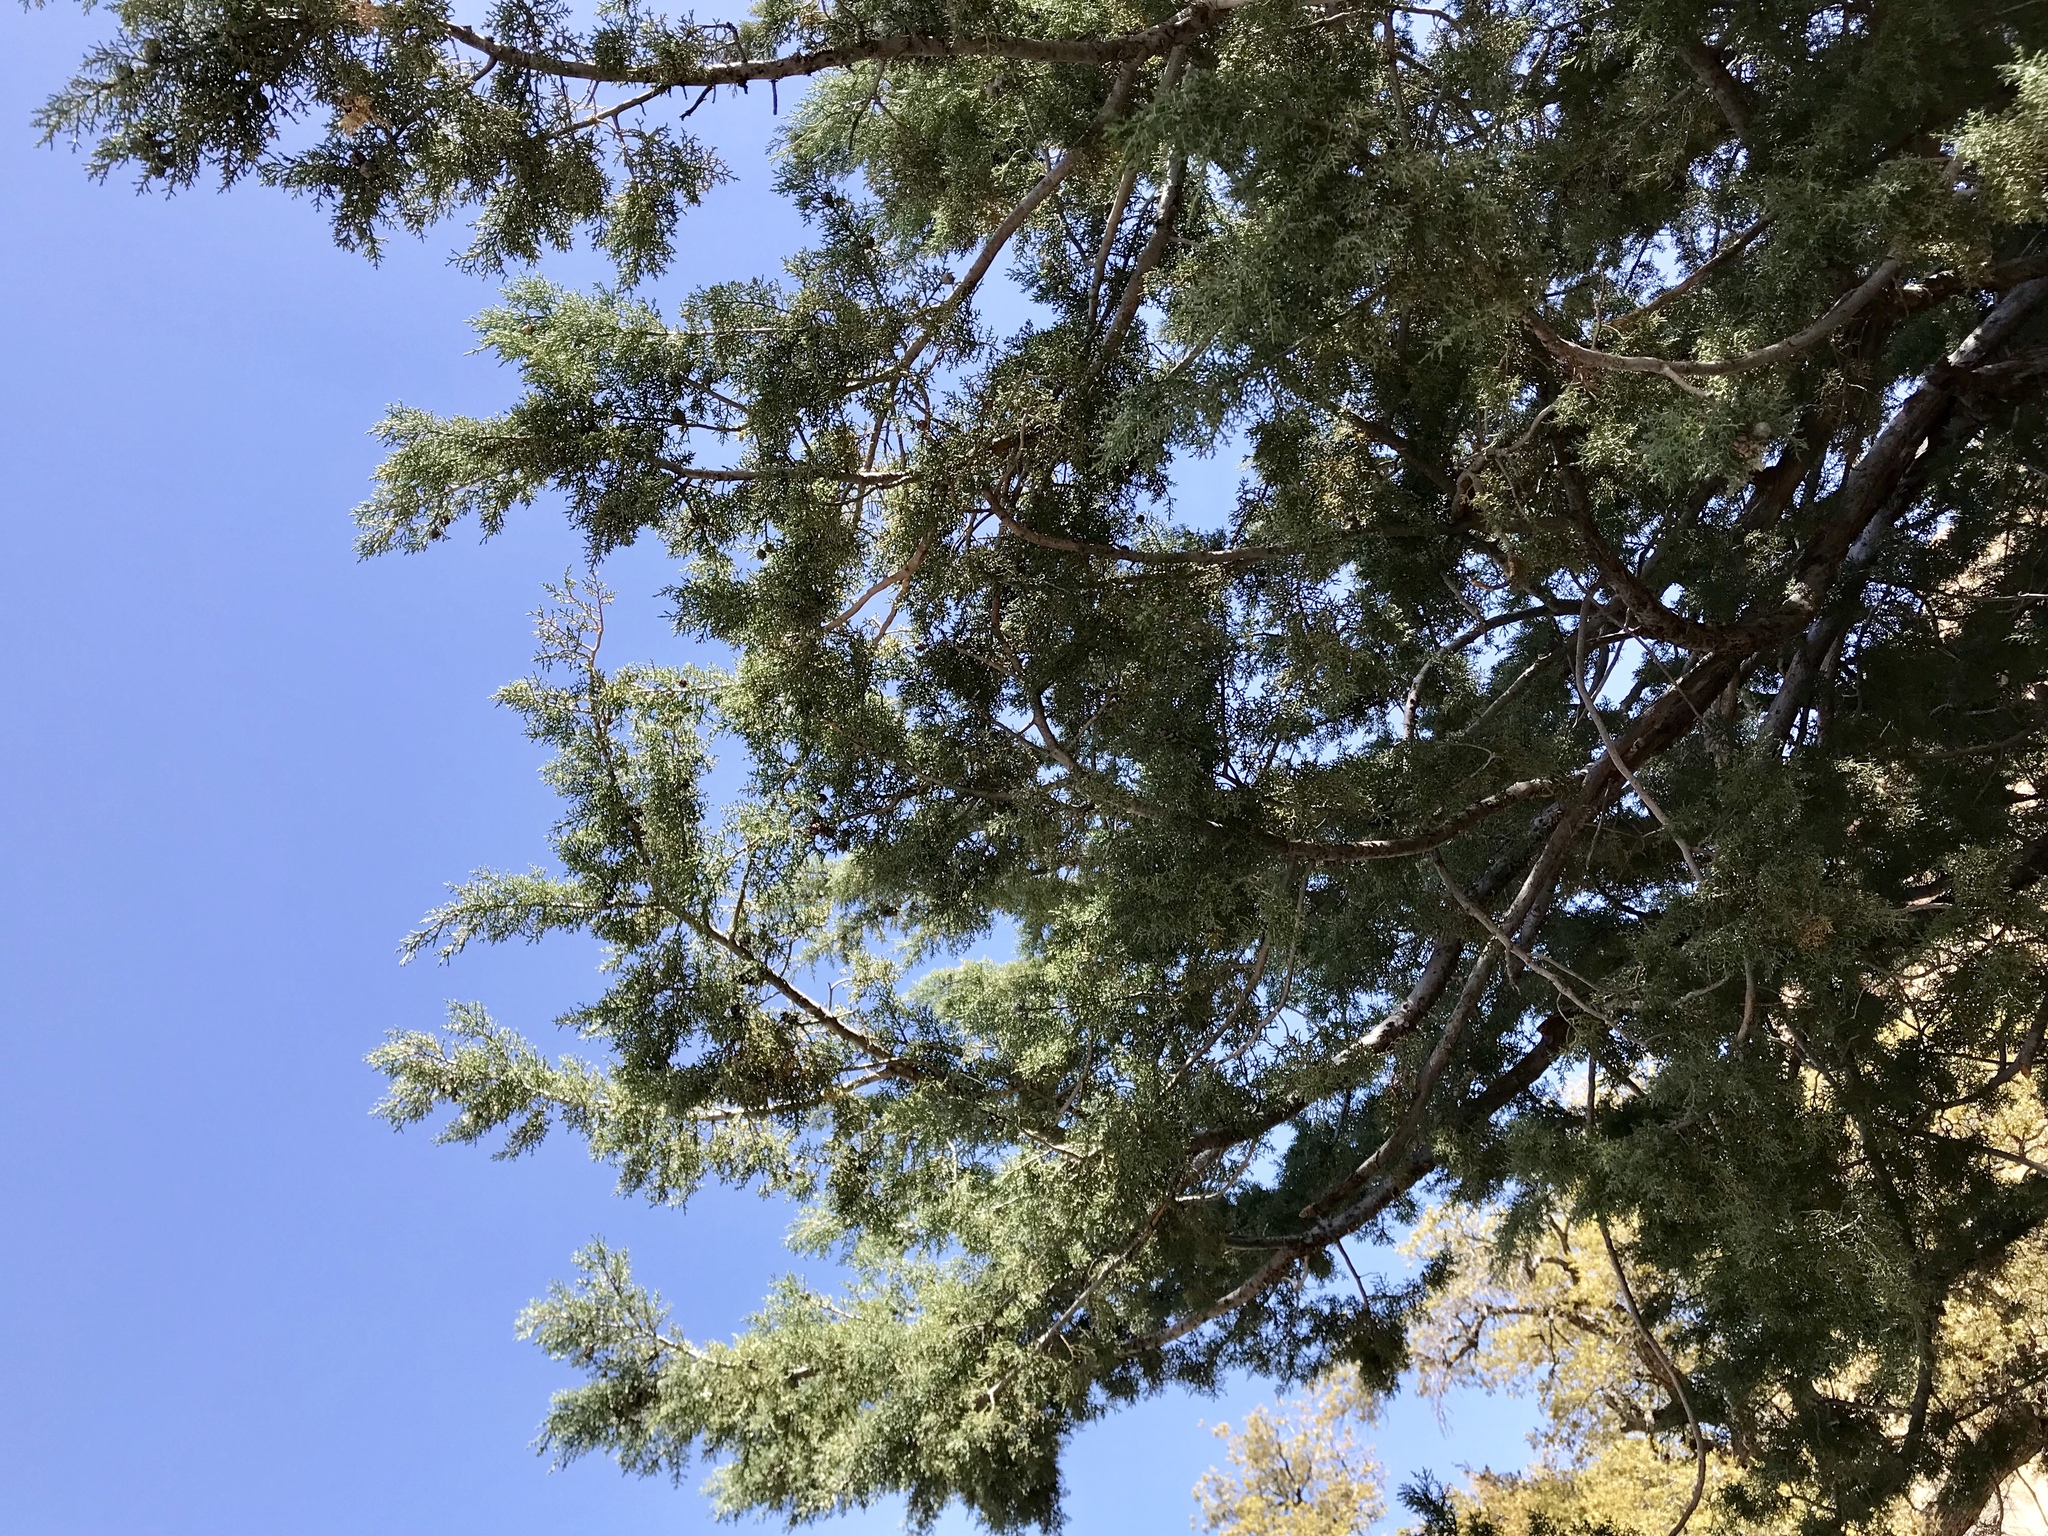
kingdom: Plantae
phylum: Tracheophyta
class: Pinopsida
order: Pinales
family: Cupressaceae
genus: Cupressus
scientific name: Cupressus arizonica
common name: Arizona cypress
